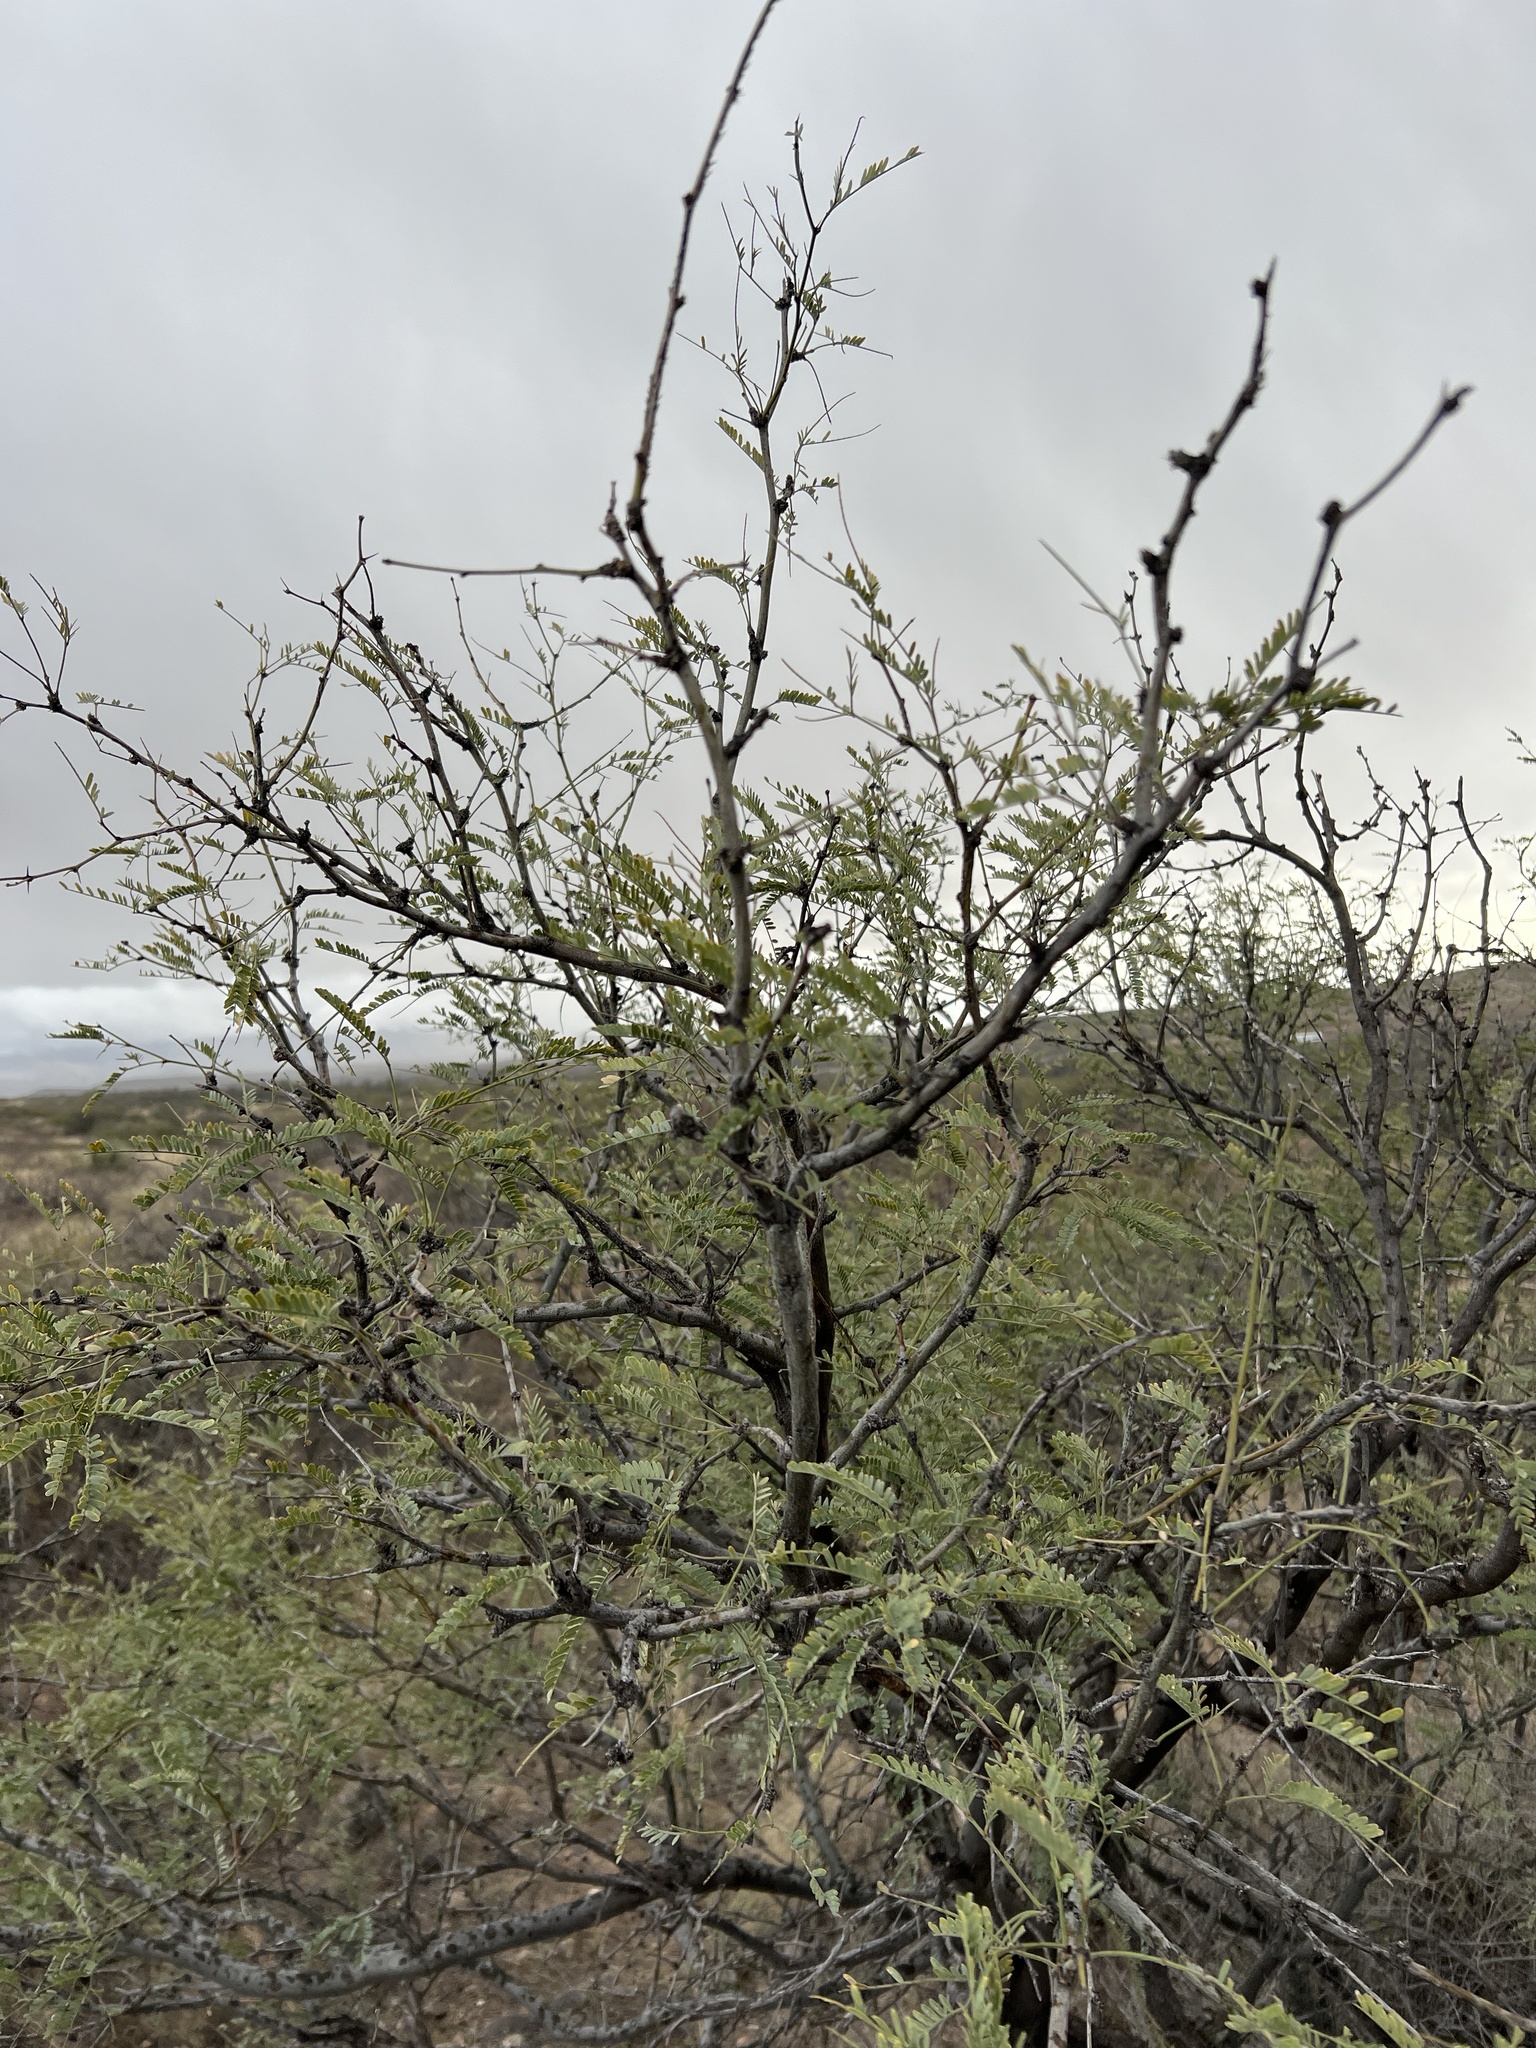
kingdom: Plantae
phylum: Tracheophyta
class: Magnoliopsida
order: Fabales
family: Fabaceae
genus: Prosopis
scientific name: Prosopis velutina
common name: Velvet mesquite
